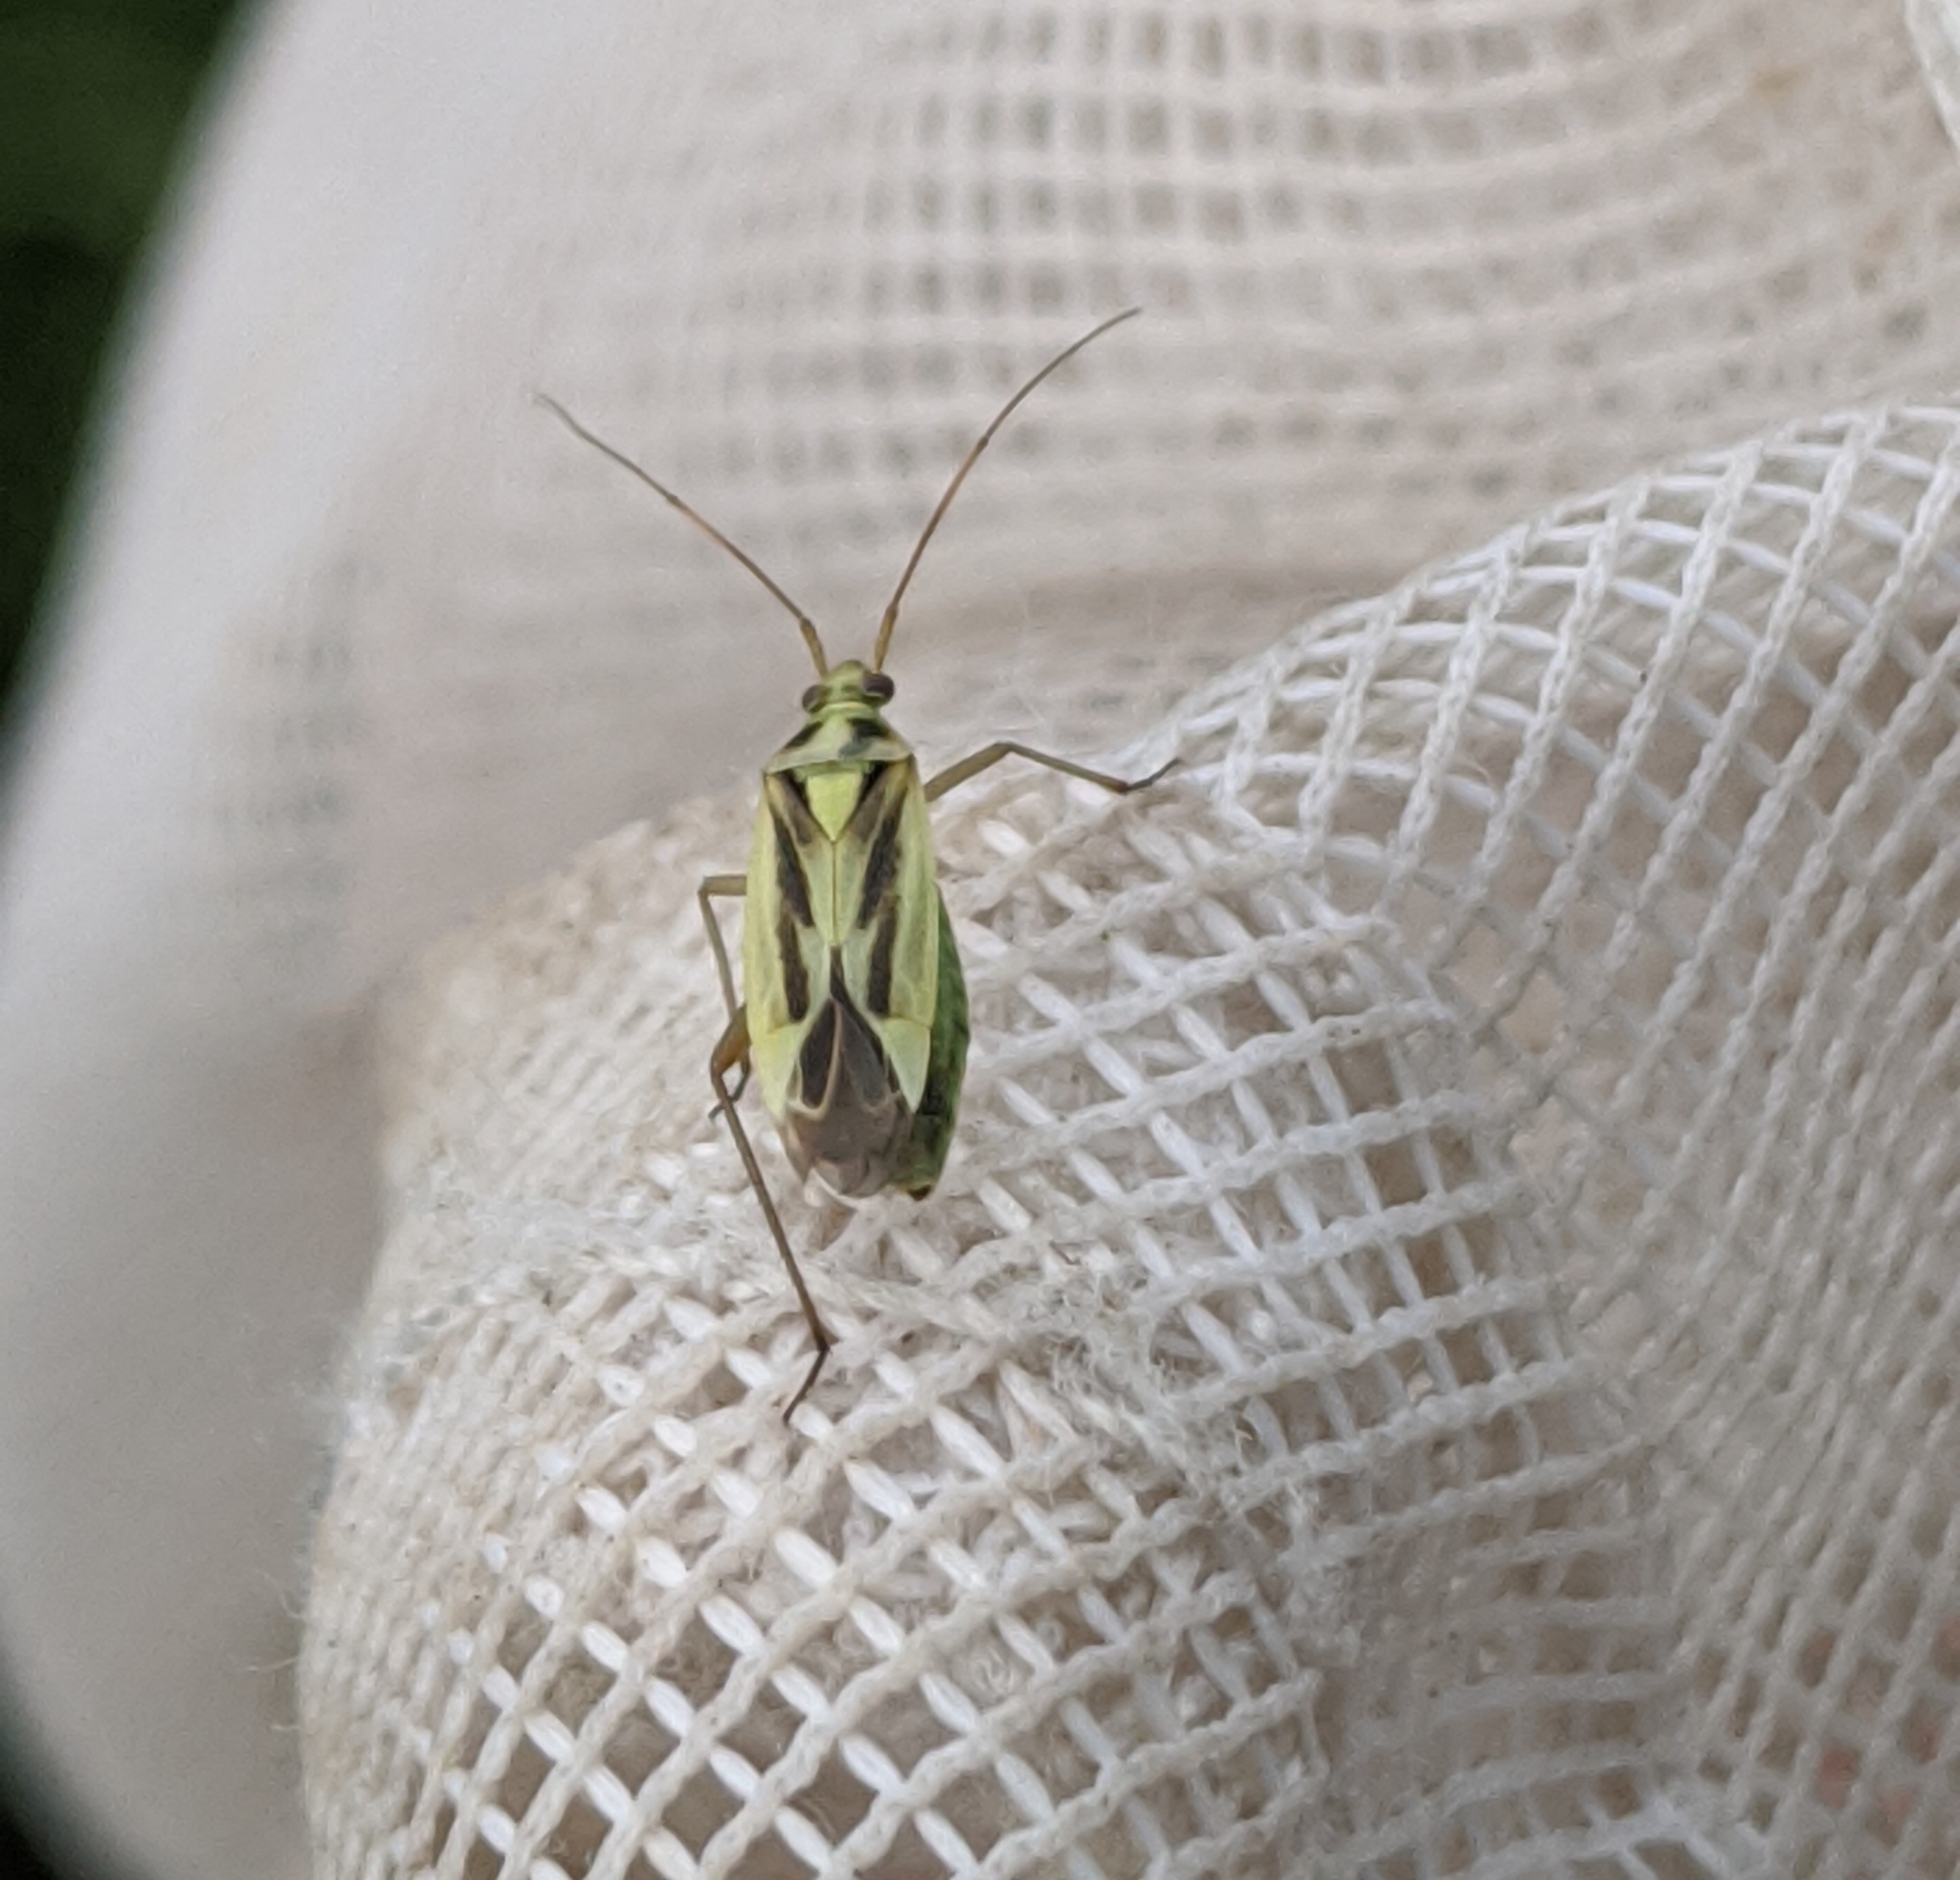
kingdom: Animalia
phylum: Arthropoda
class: Insecta
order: Hemiptera
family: Miridae
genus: Stenotus
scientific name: Stenotus binotatus
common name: Plant bug
